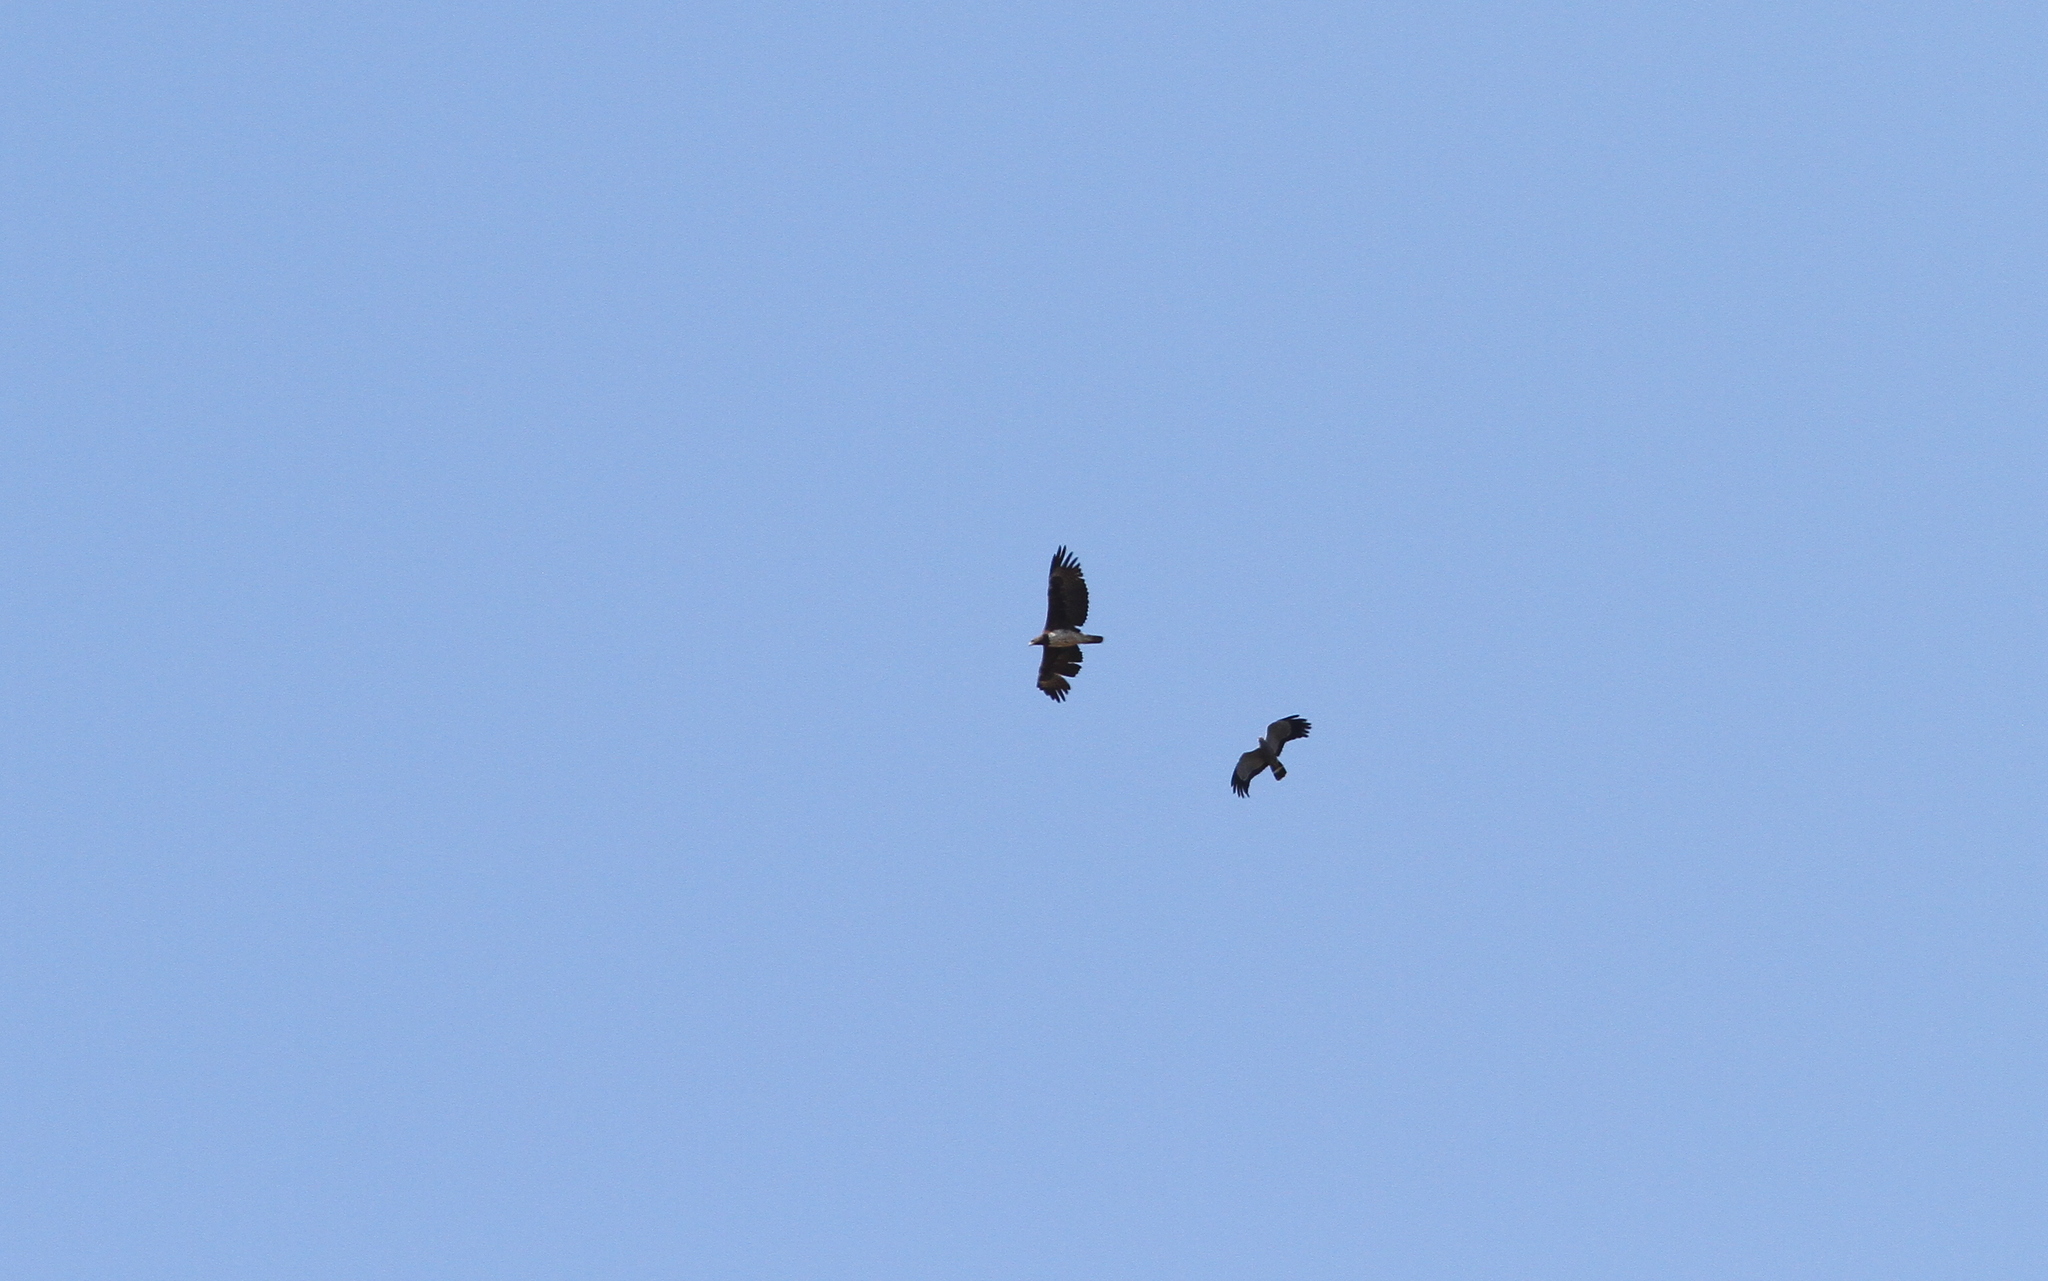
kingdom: Animalia
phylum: Chordata
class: Aves
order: Accipitriformes
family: Accipitridae
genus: Polemaetus
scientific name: Polemaetus bellicosus
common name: Martial eagle
